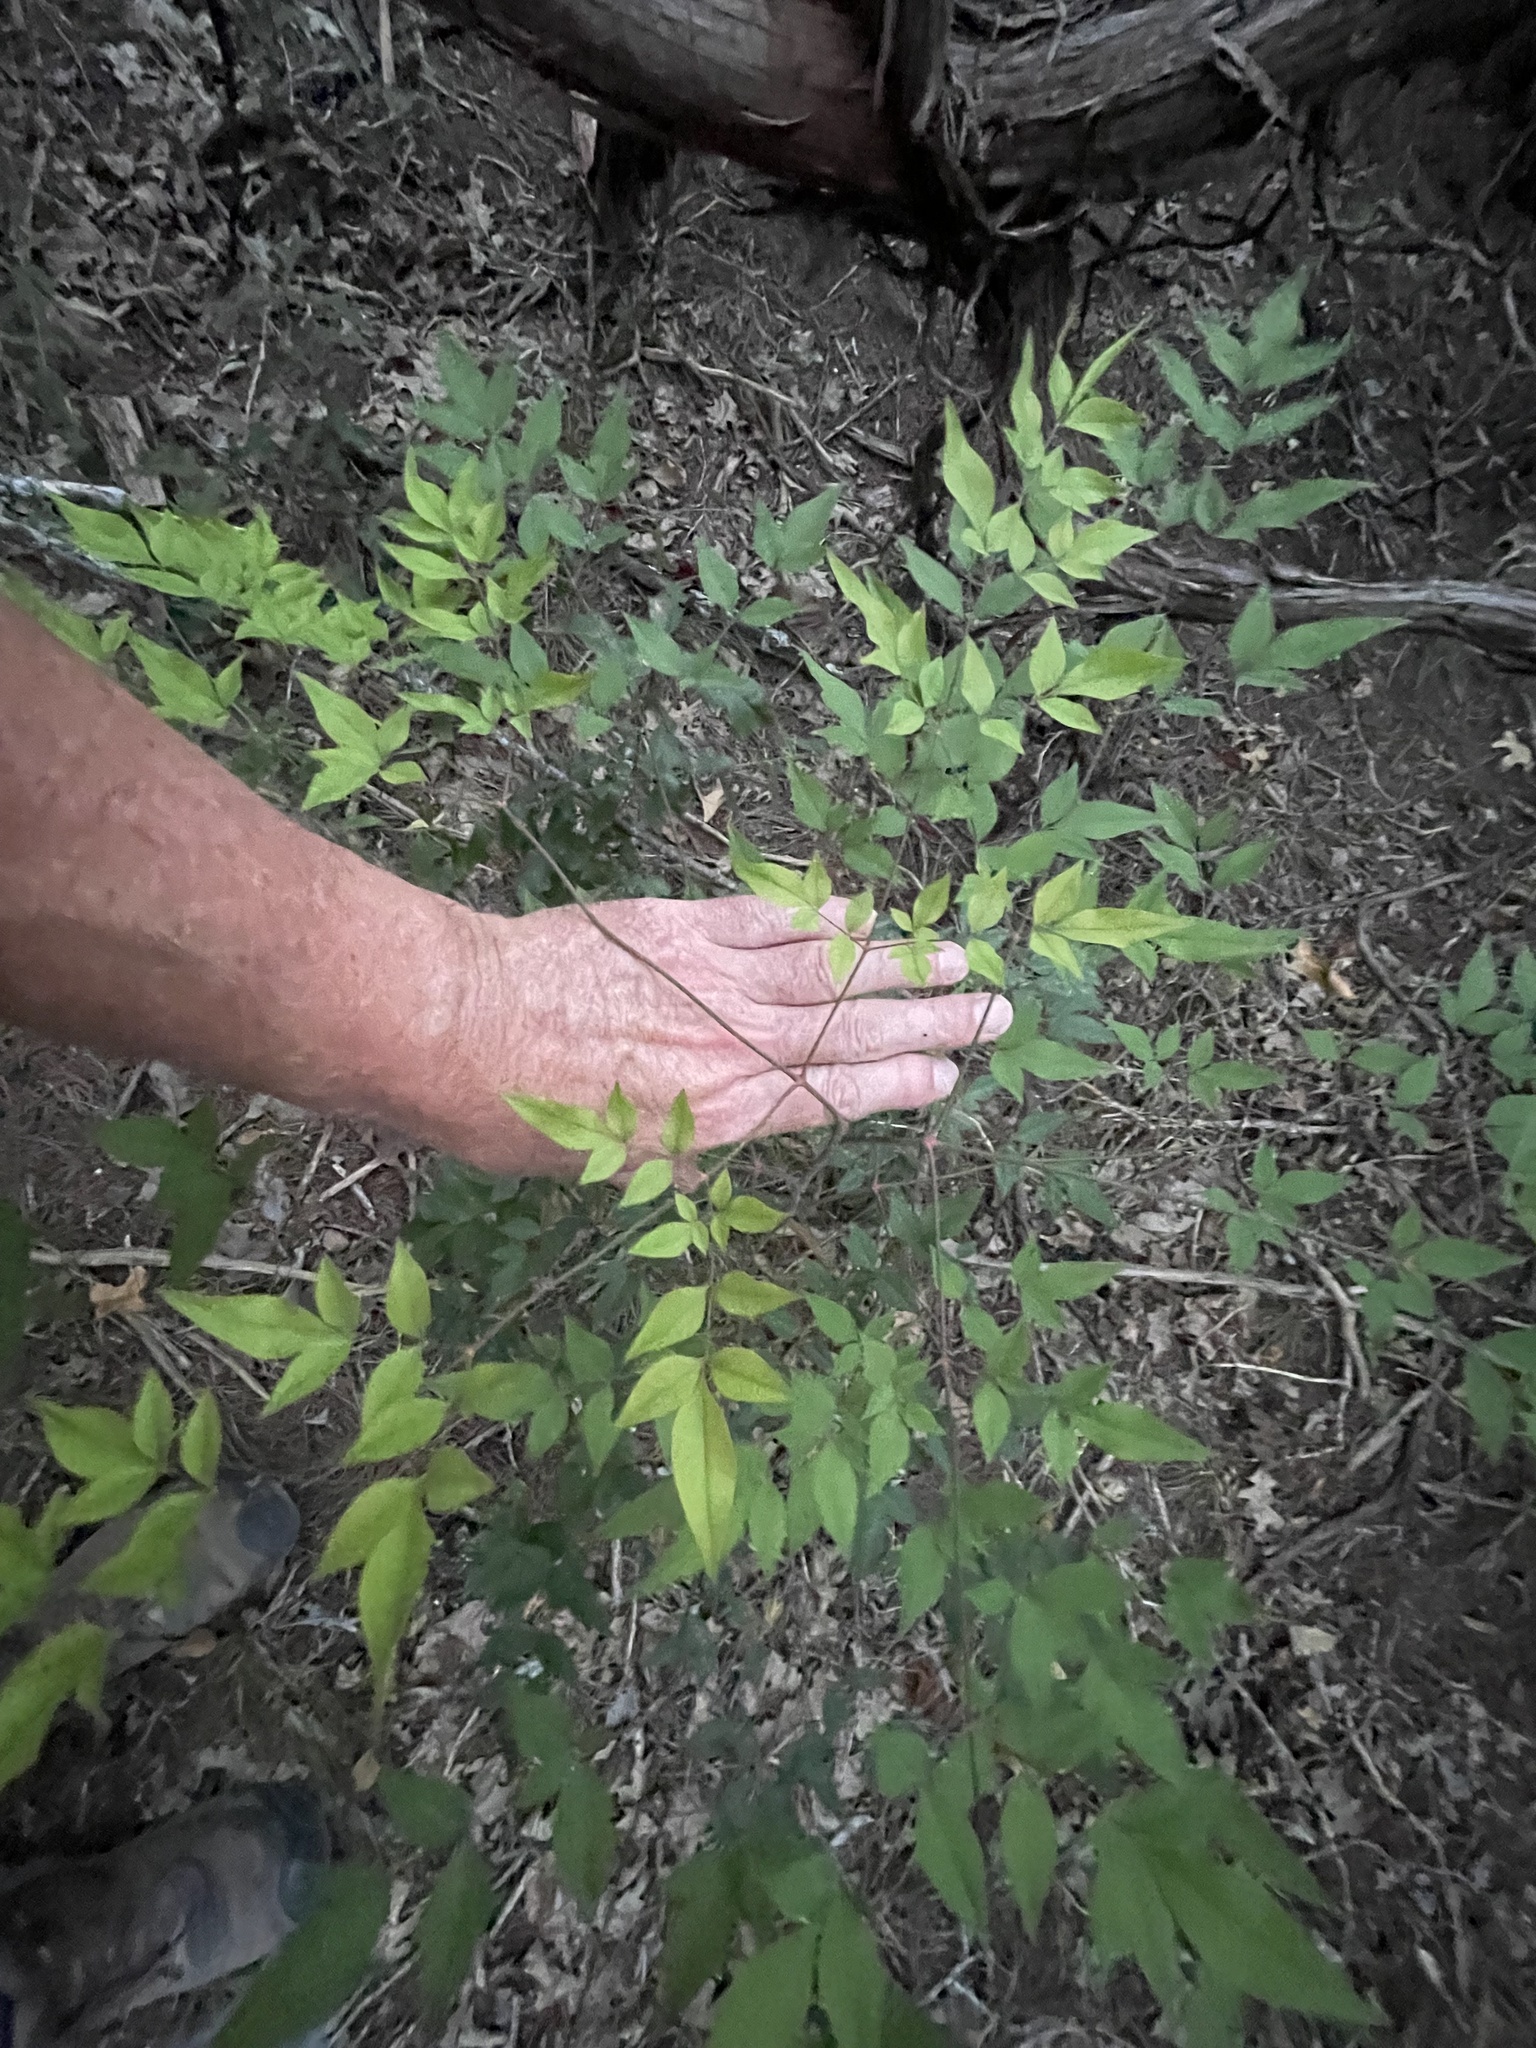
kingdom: Plantae
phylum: Tracheophyta
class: Magnoliopsida
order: Ranunculales
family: Berberidaceae
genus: Nandina
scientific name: Nandina domestica
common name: Sacred bamboo
